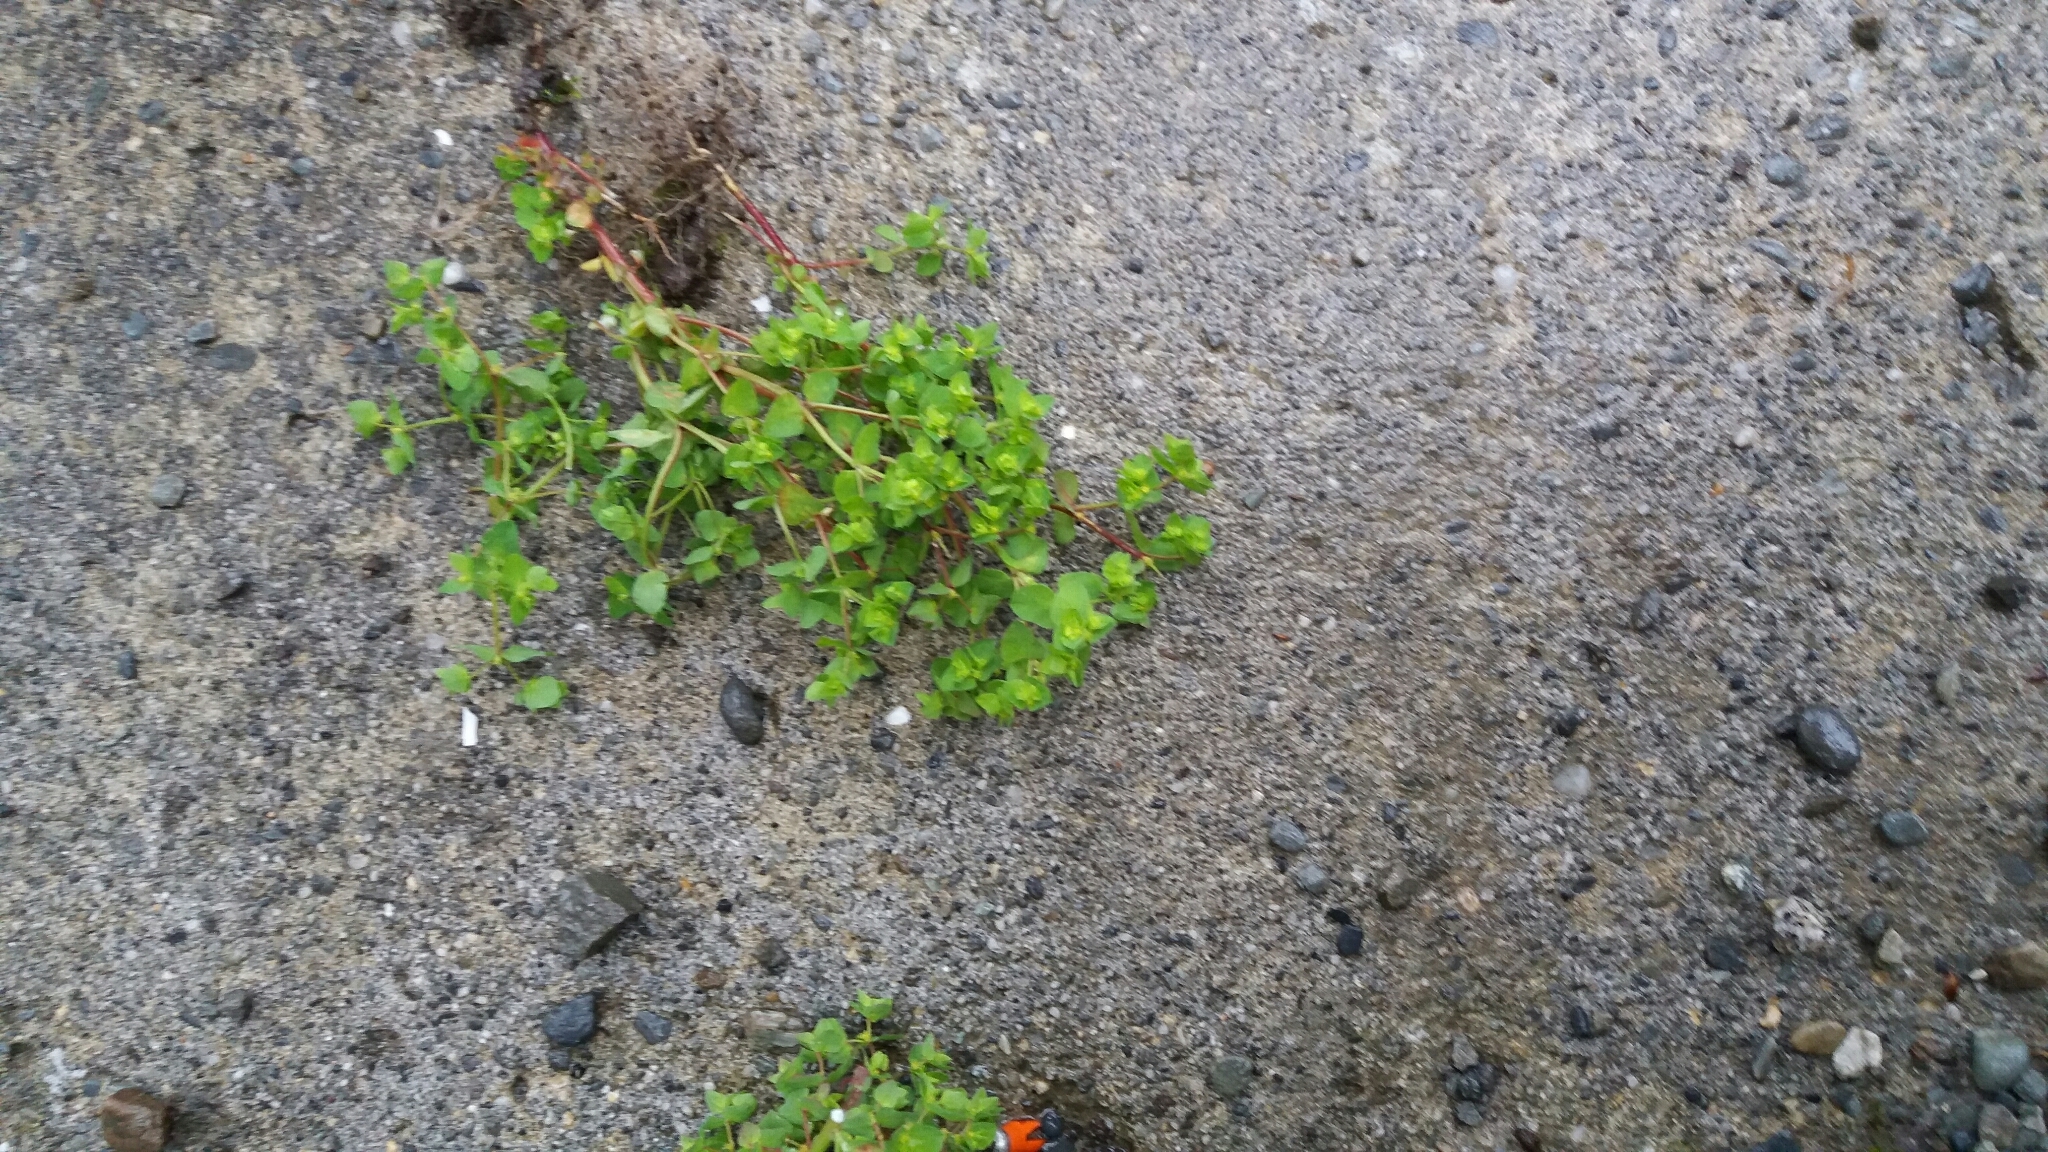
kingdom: Plantae
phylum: Tracheophyta
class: Magnoliopsida
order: Malpighiales
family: Euphorbiaceae
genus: Euphorbia
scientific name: Euphorbia peplus
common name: Petty spurge
